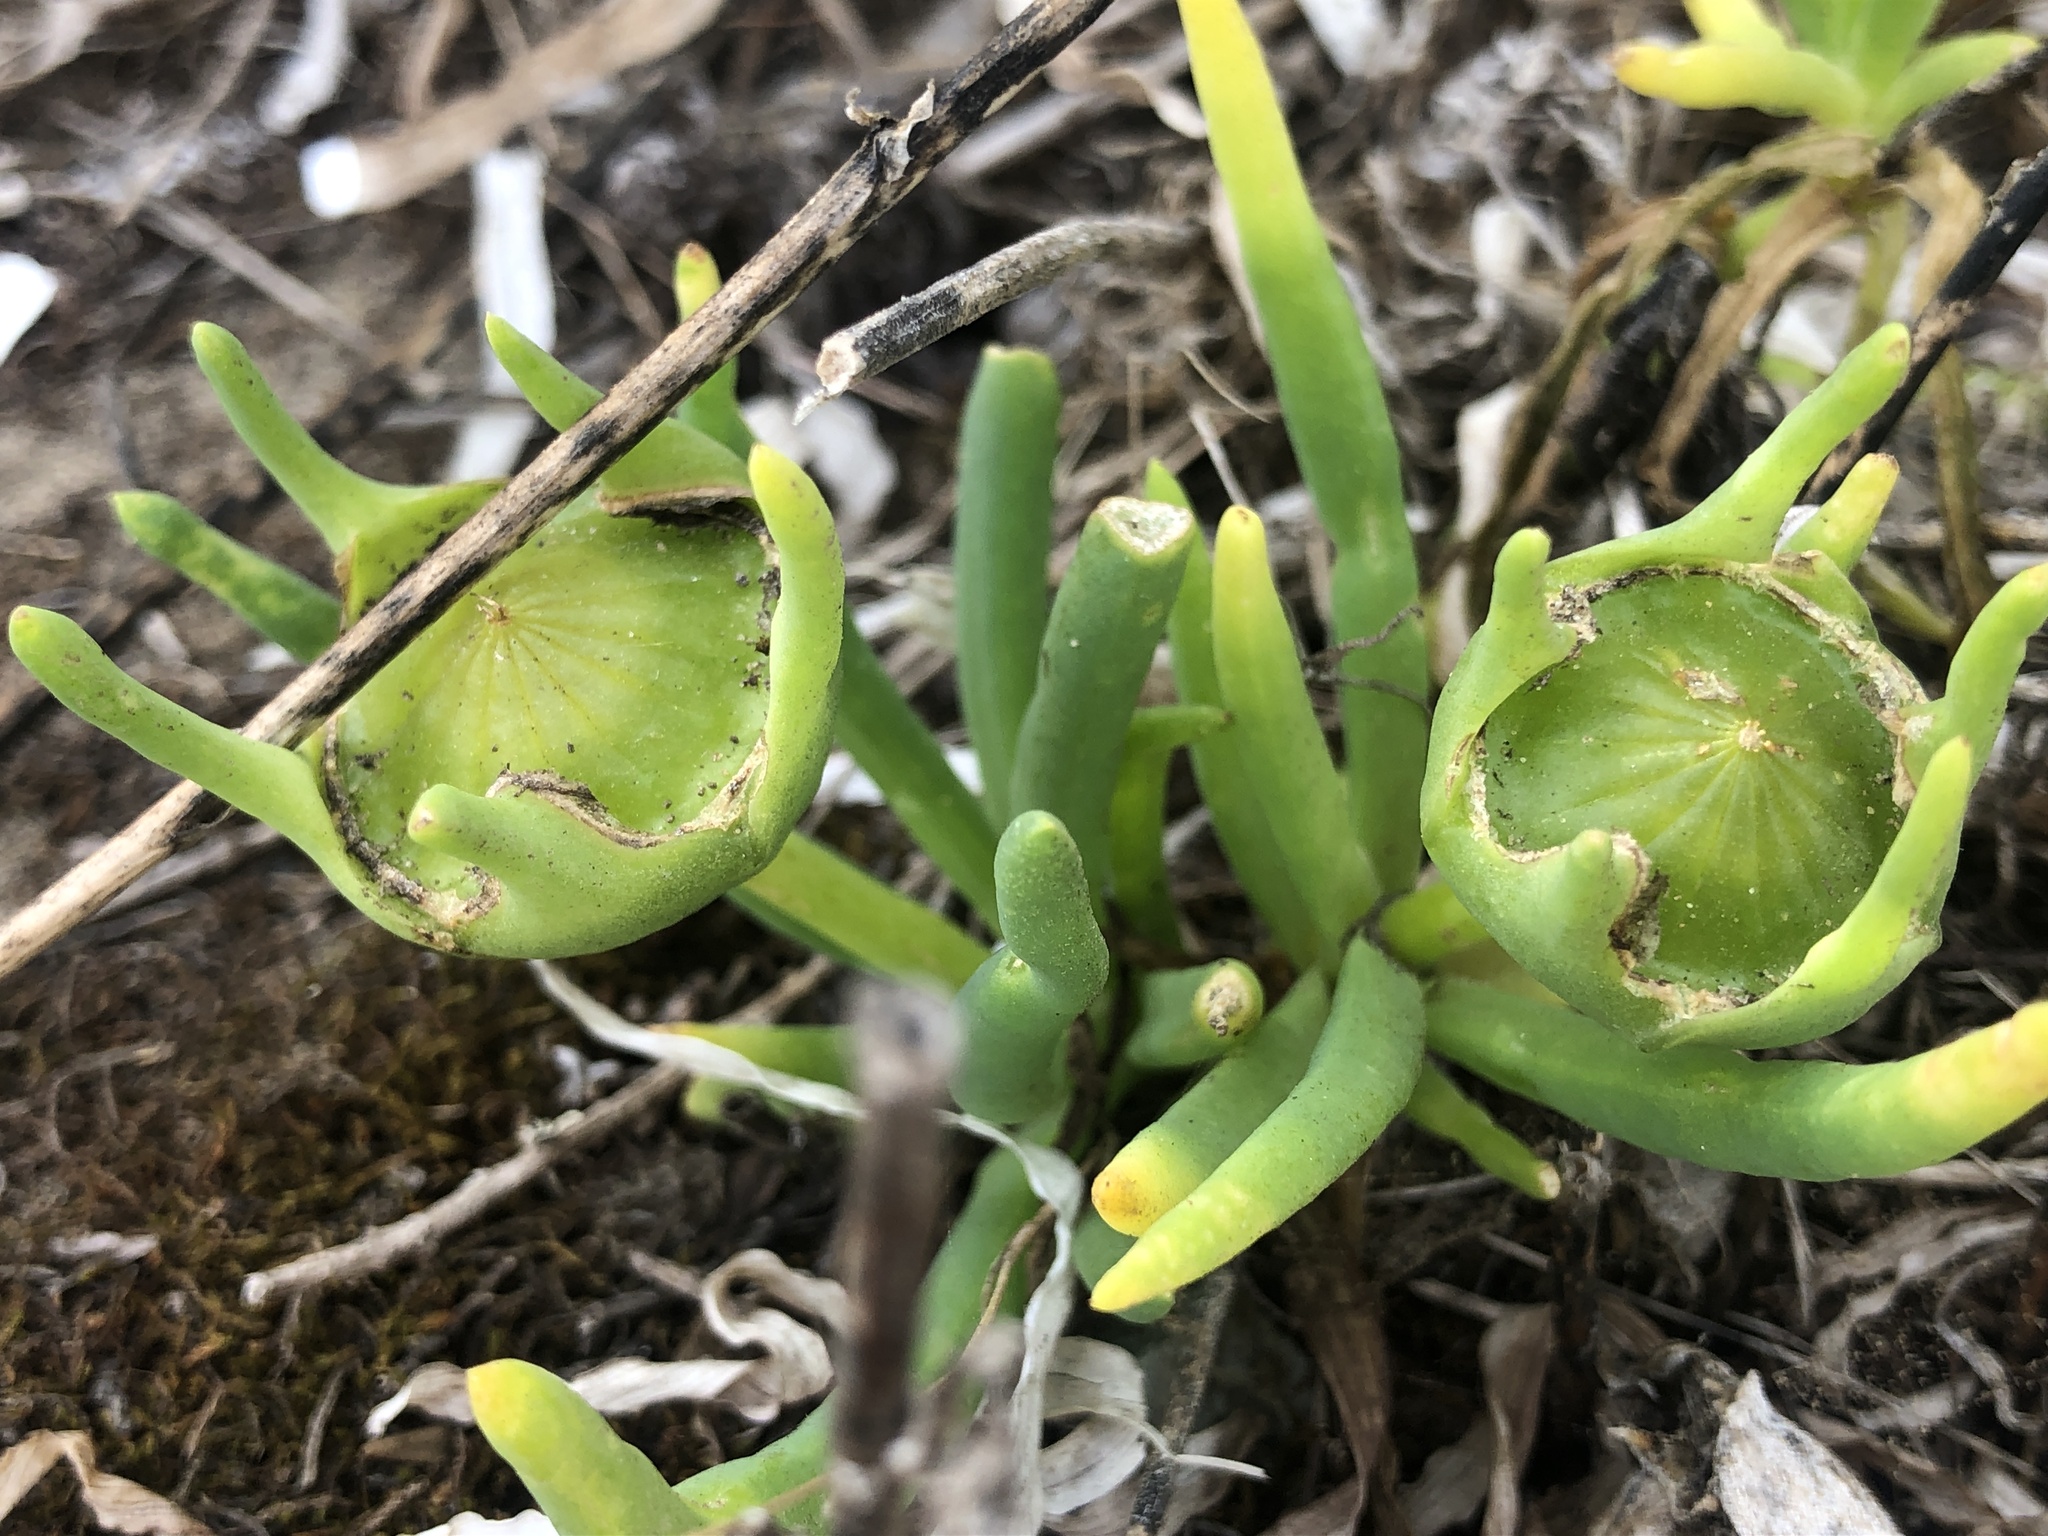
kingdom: Plantae
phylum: Tracheophyta
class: Magnoliopsida
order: Caryophyllales
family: Aizoaceae
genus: Conicosia
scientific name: Conicosia pugioniformis
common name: Narrow-leaved iceplant
